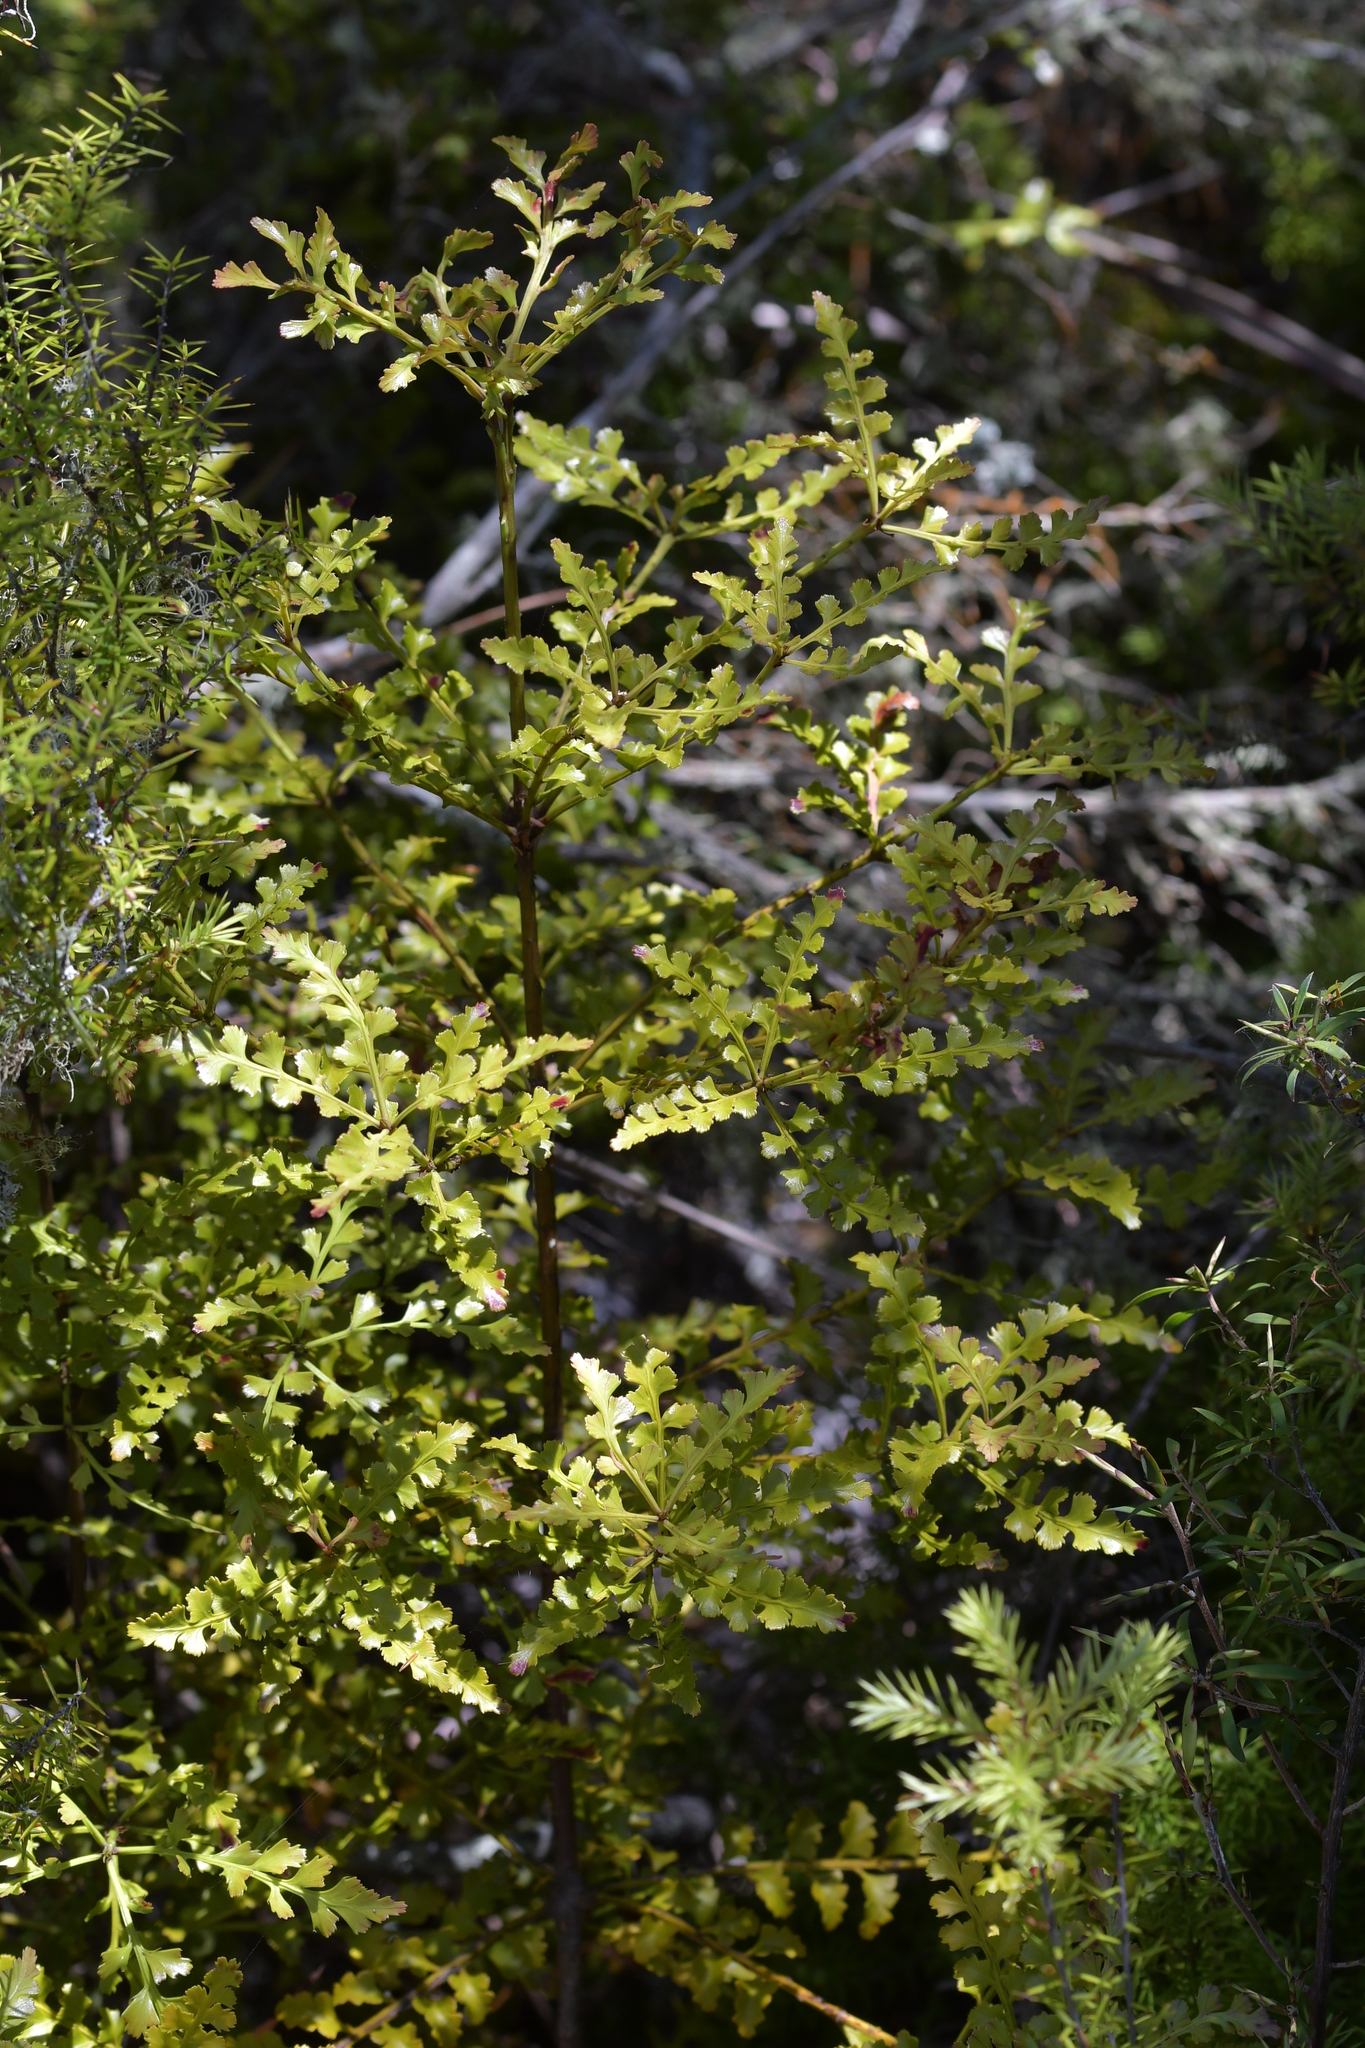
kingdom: Plantae
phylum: Tracheophyta
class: Pinopsida
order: Pinales
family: Phyllocladaceae
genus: Phyllocladus
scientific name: Phyllocladus trichomanoides
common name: Celery pine
